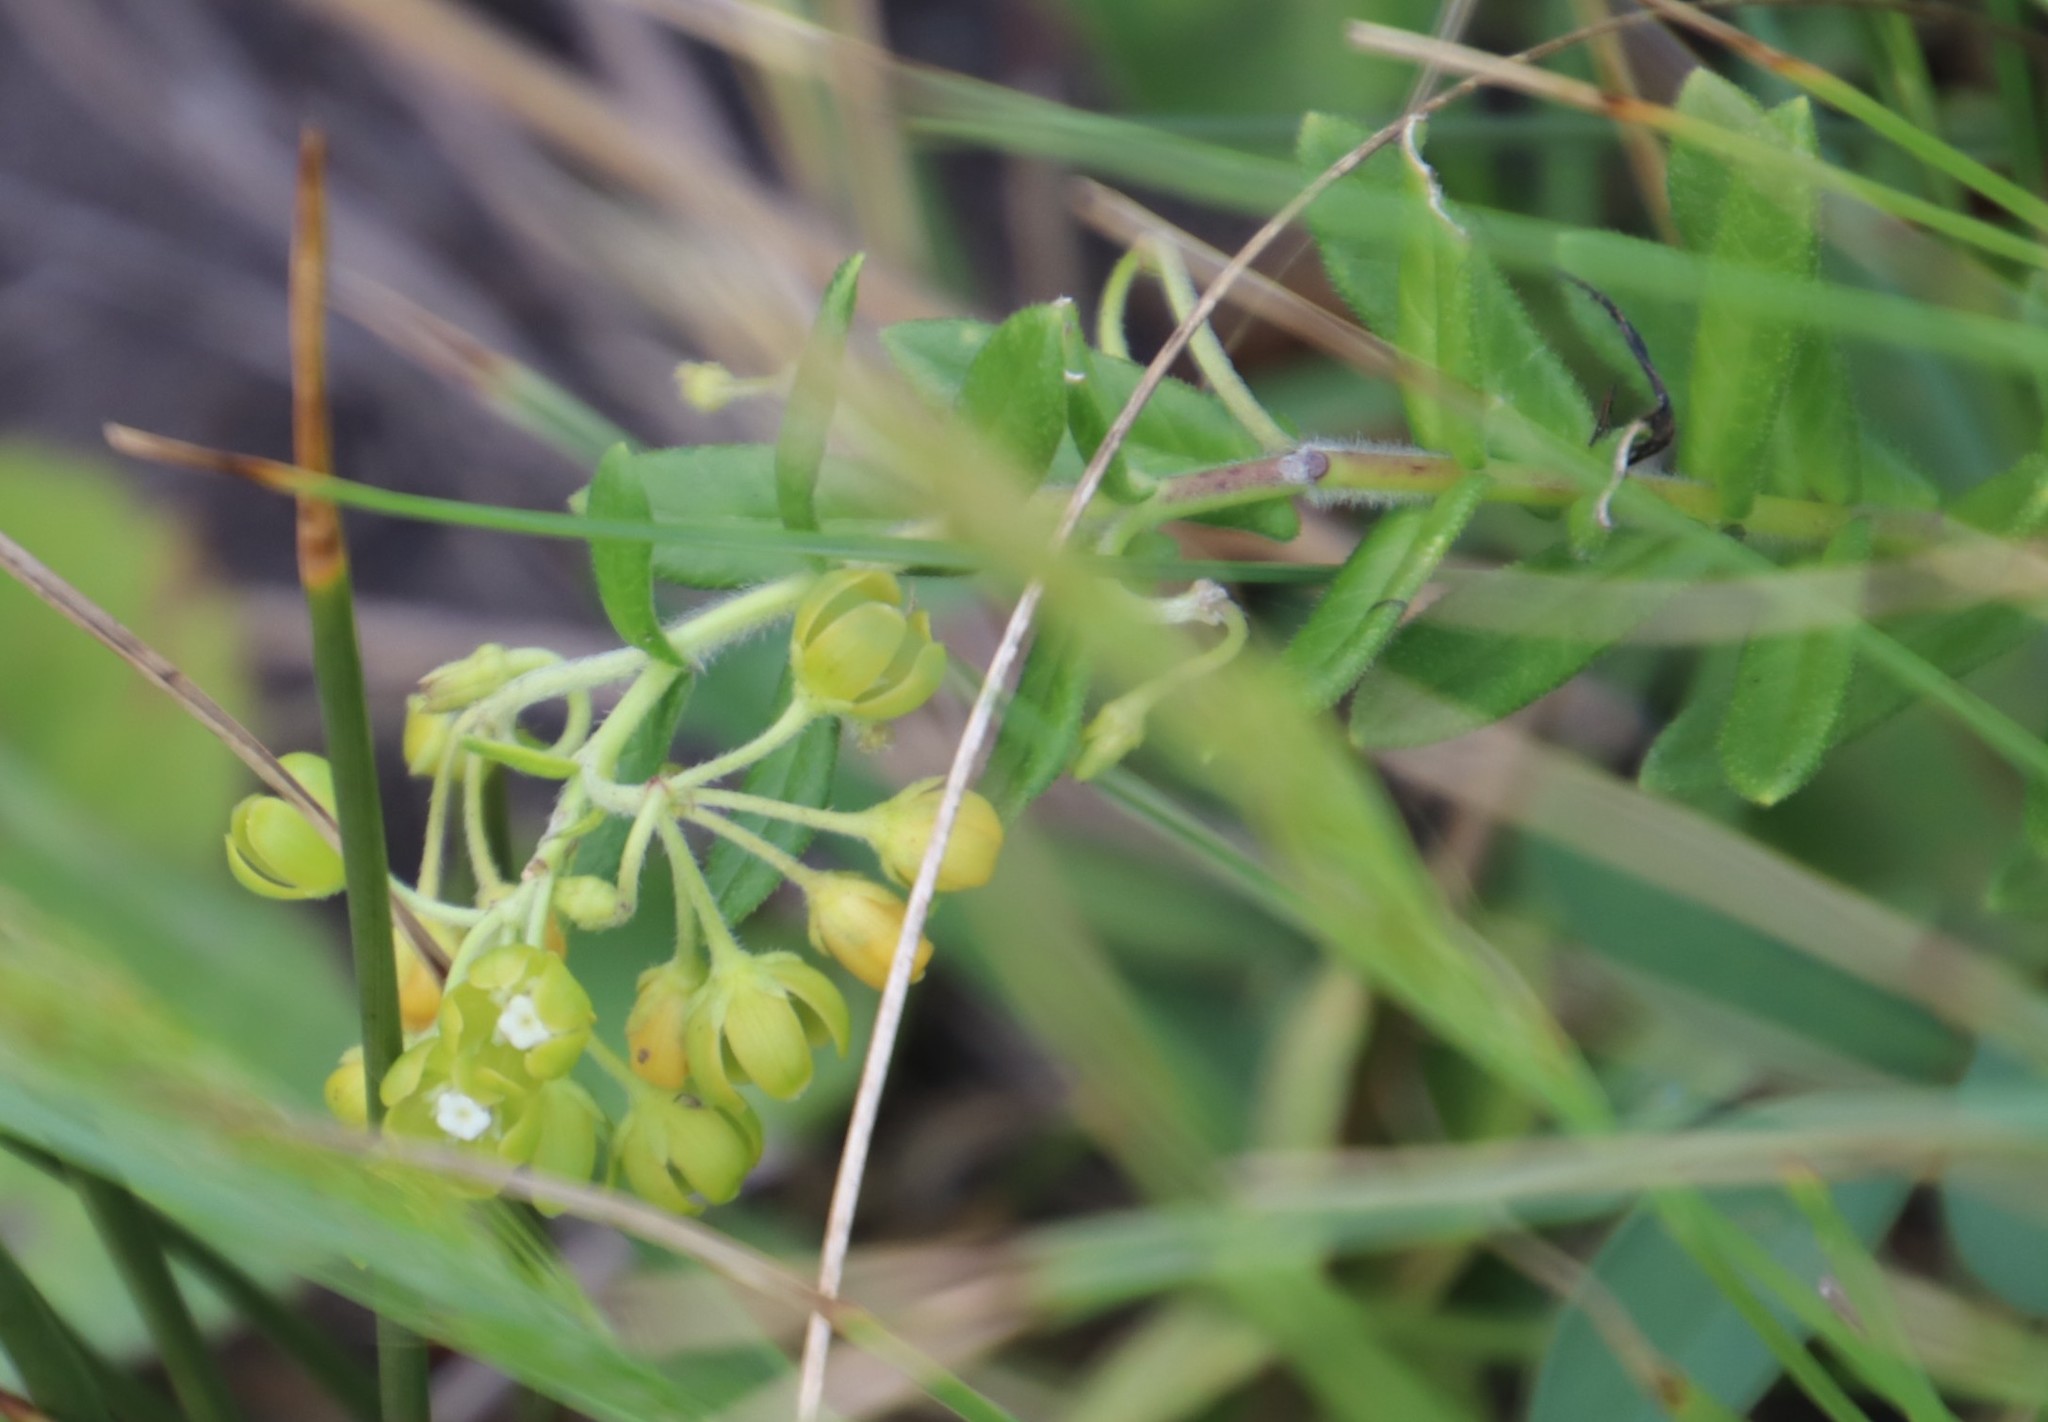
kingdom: Plantae
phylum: Tracheophyta
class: Magnoliopsida
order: Gentianales
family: Apocynaceae
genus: Schizoglossum
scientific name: Schizoglossum atropurpureum
